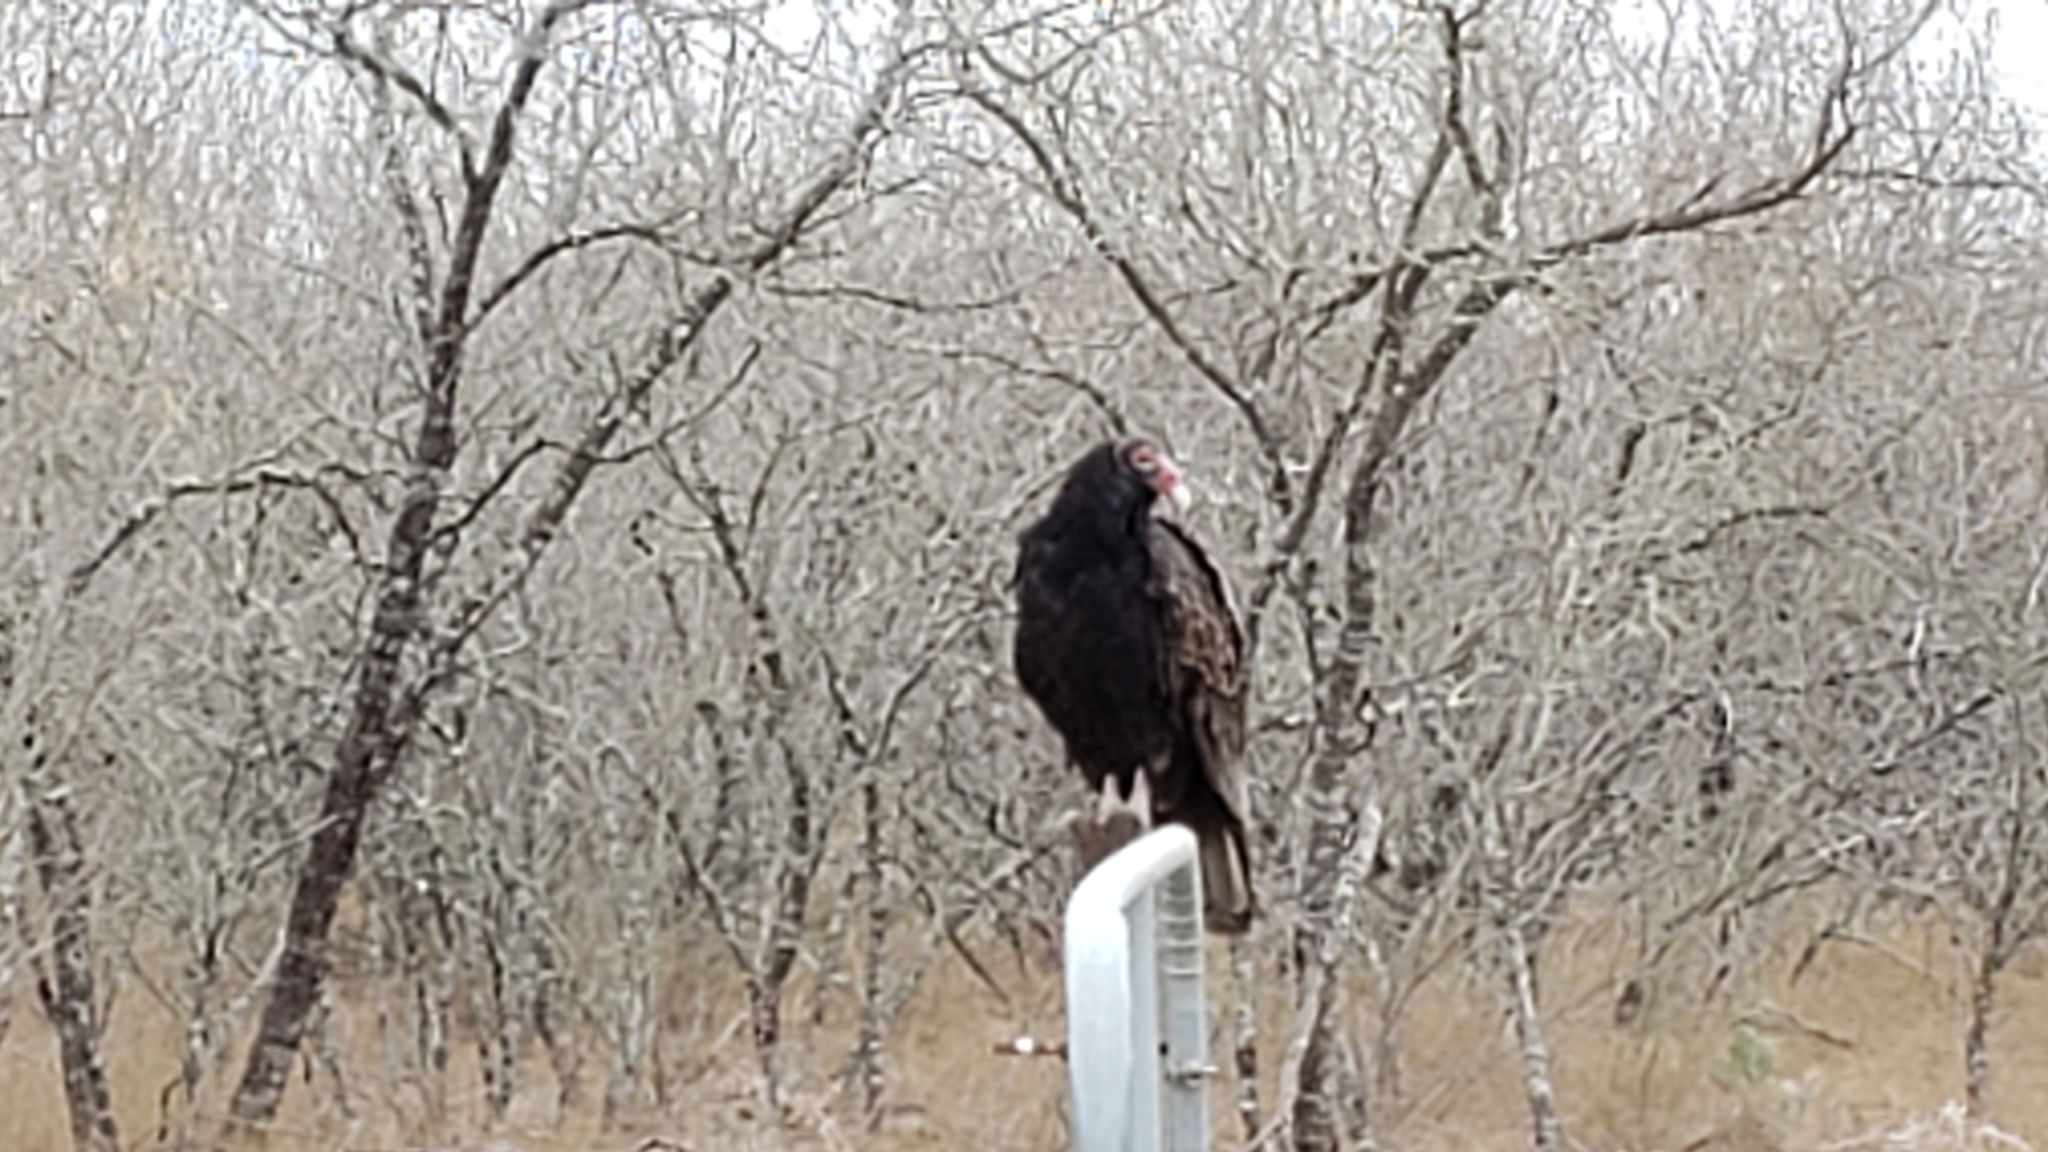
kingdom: Animalia
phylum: Chordata
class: Aves
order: Accipitriformes
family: Cathartidae
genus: Cathartes
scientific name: Cathartes aura
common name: Turkey vulture
